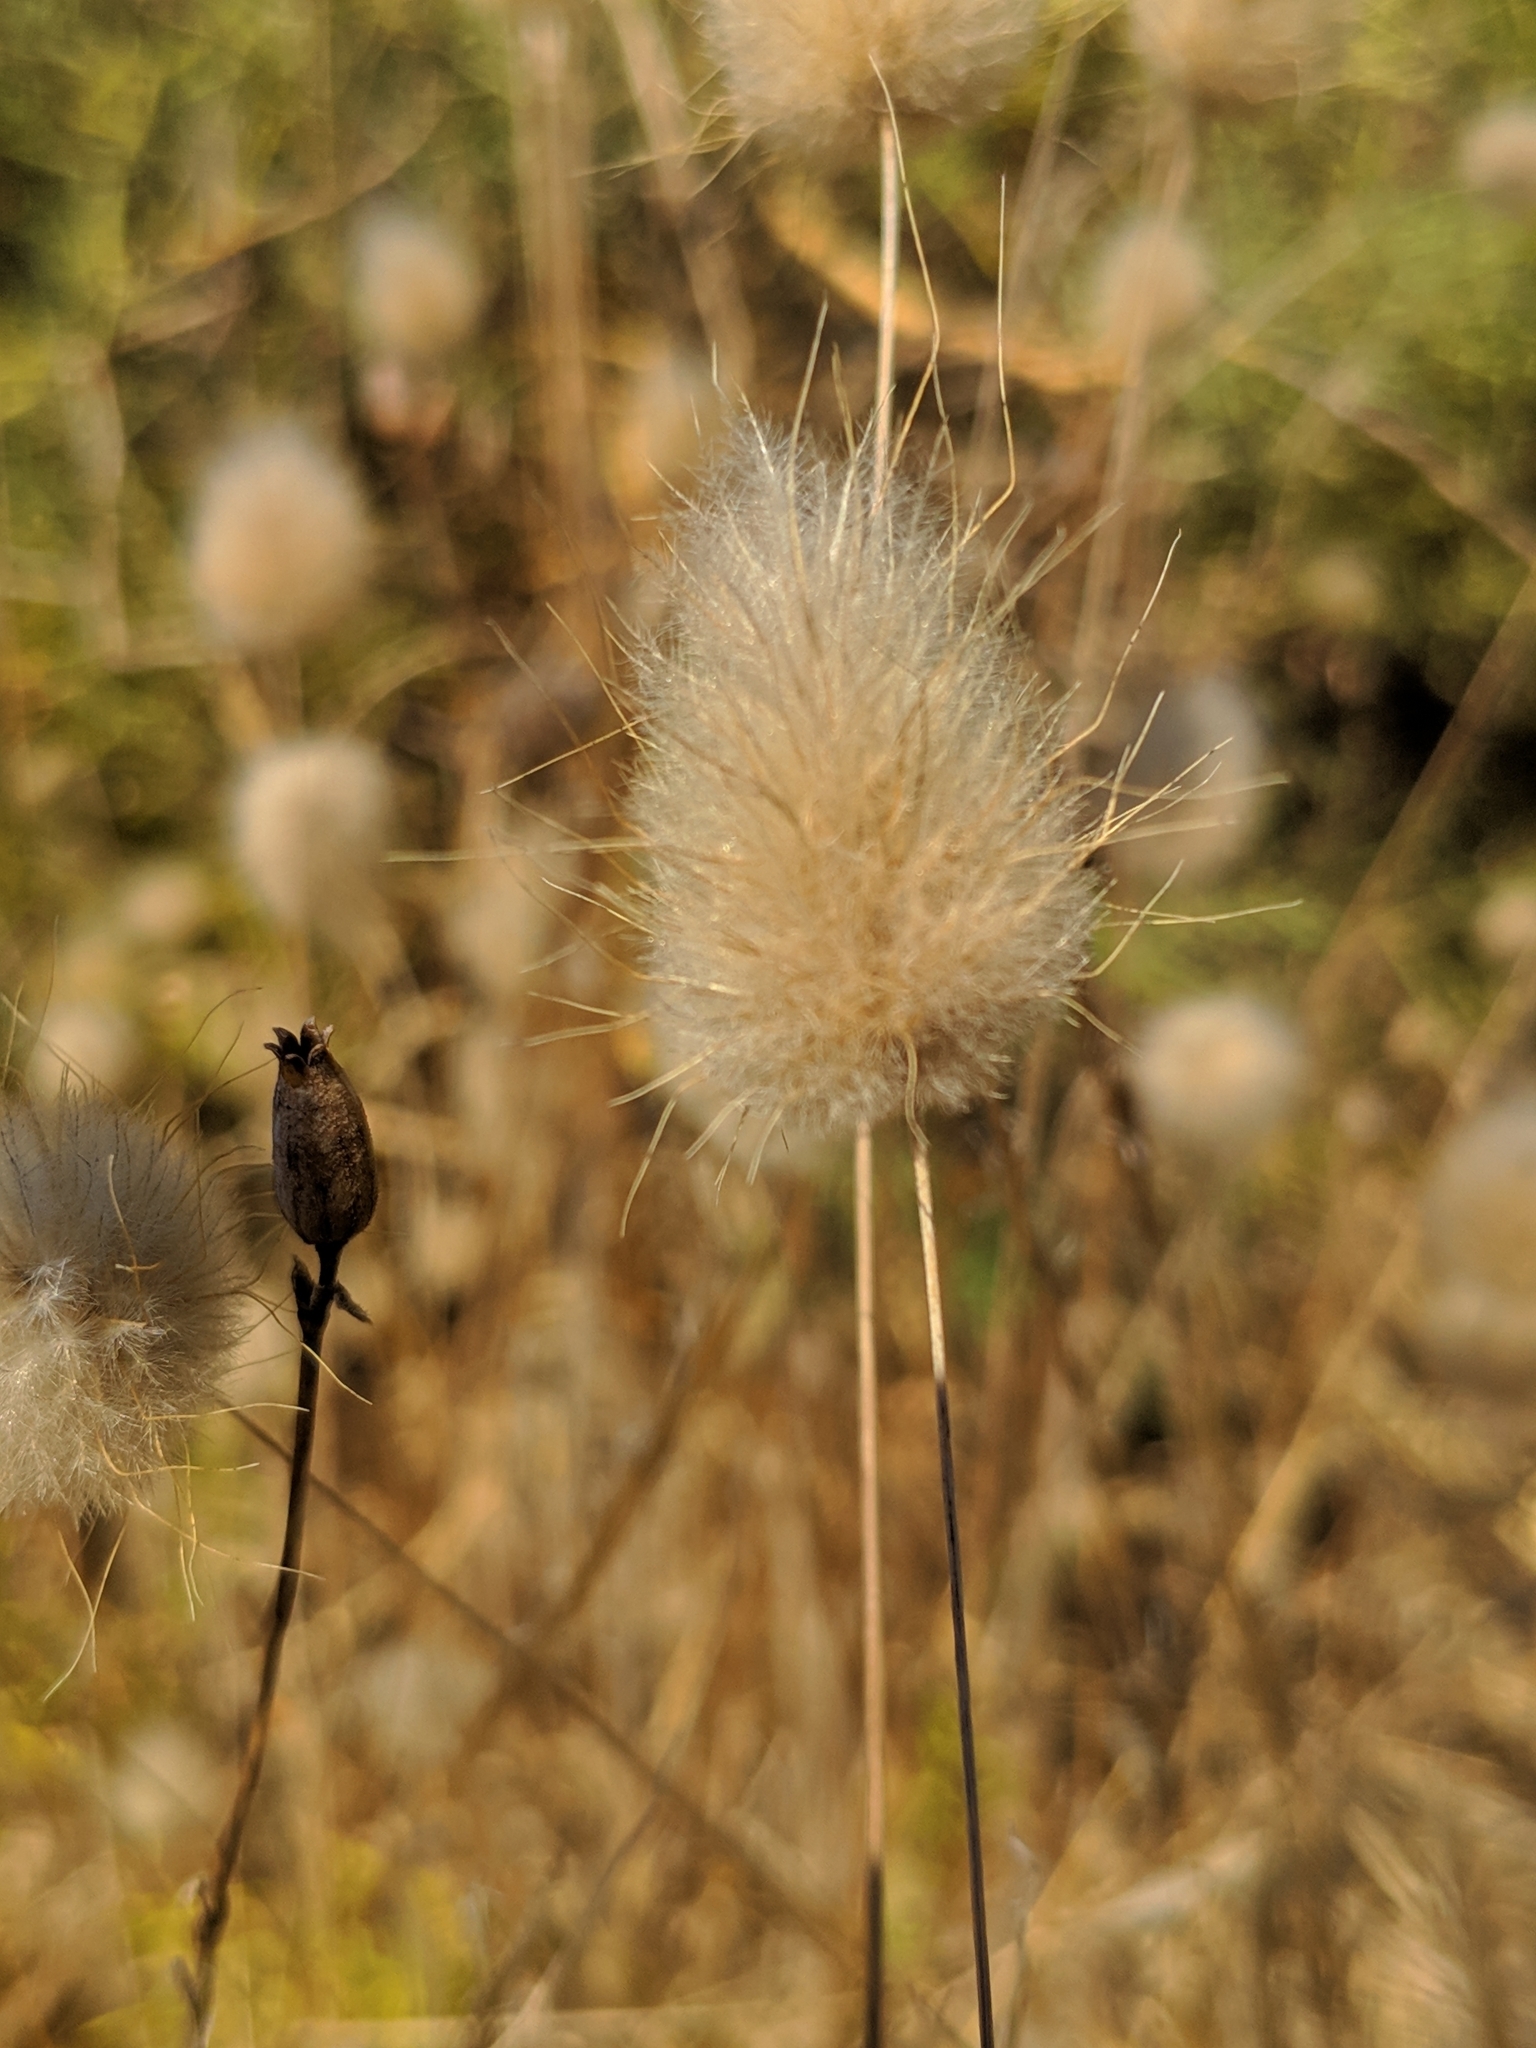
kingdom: Plantae
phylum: Tracheophyta
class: Liliopsida
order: Poales
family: Poaceae
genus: Lagurus
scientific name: Lagurus ovatus
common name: Hare's-tail
